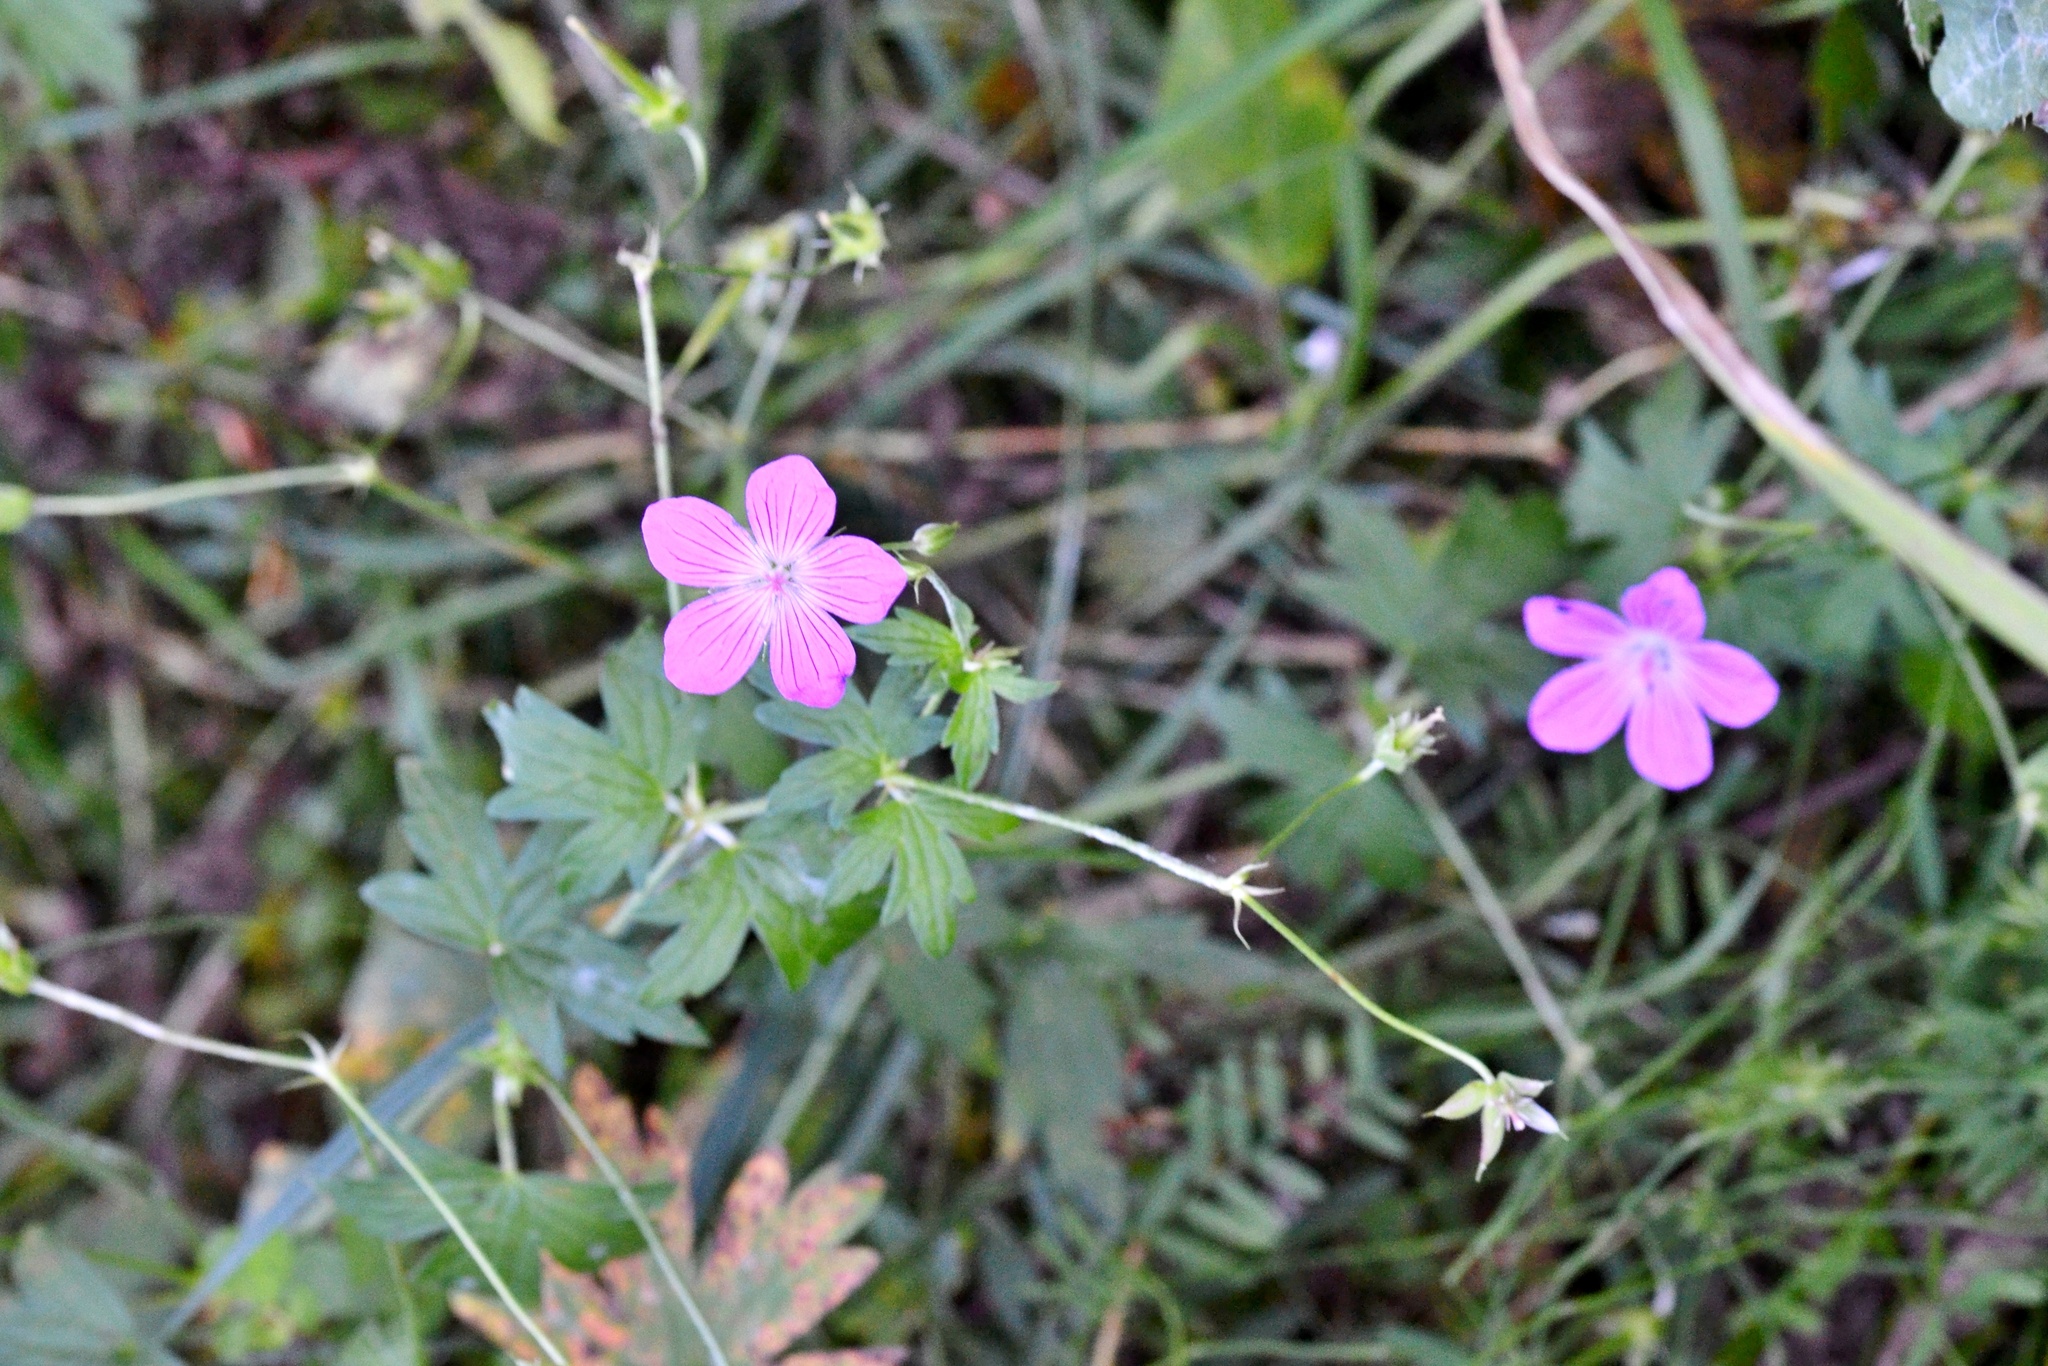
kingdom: Plantae
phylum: Tracheophyta
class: Magnoliopsida
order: Geraniales
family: Geraniaceae
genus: Geranium
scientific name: Geranium palustre
